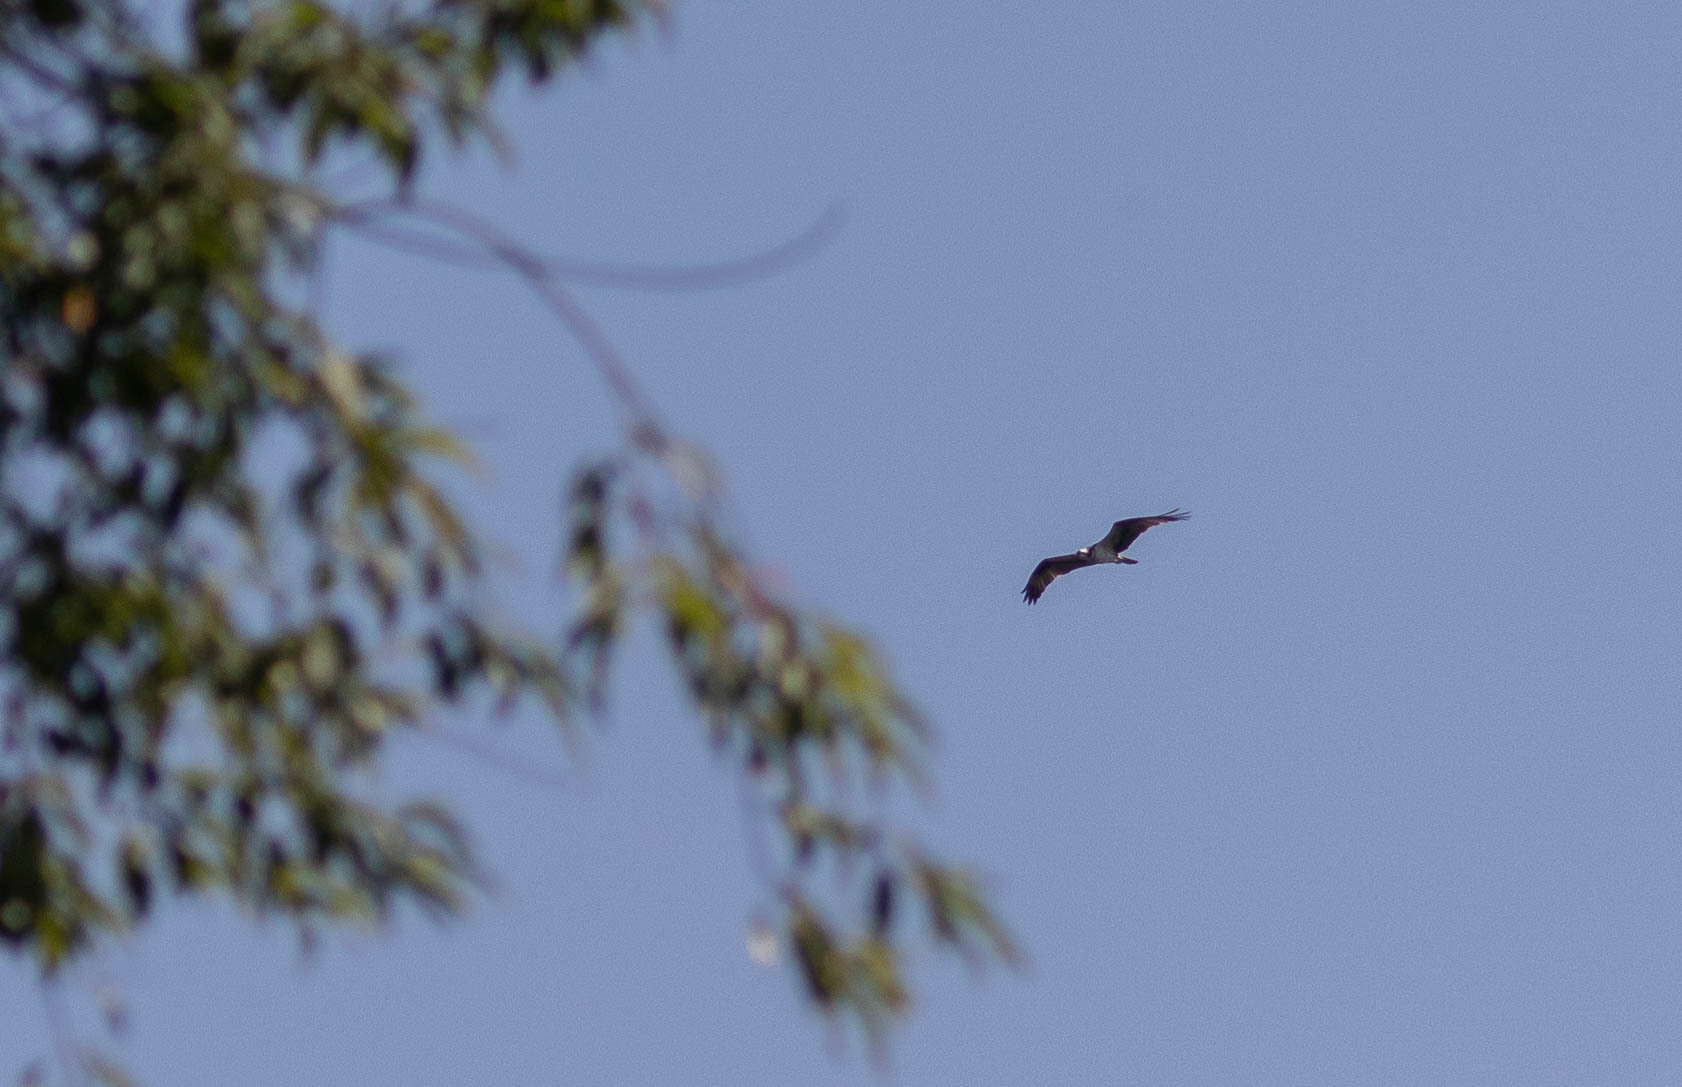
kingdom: Animalia
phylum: Chordata
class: Aves
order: Accipitriformes
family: Pandionidae
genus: Pandion
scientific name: Pandion haliaetus
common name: Osprey
